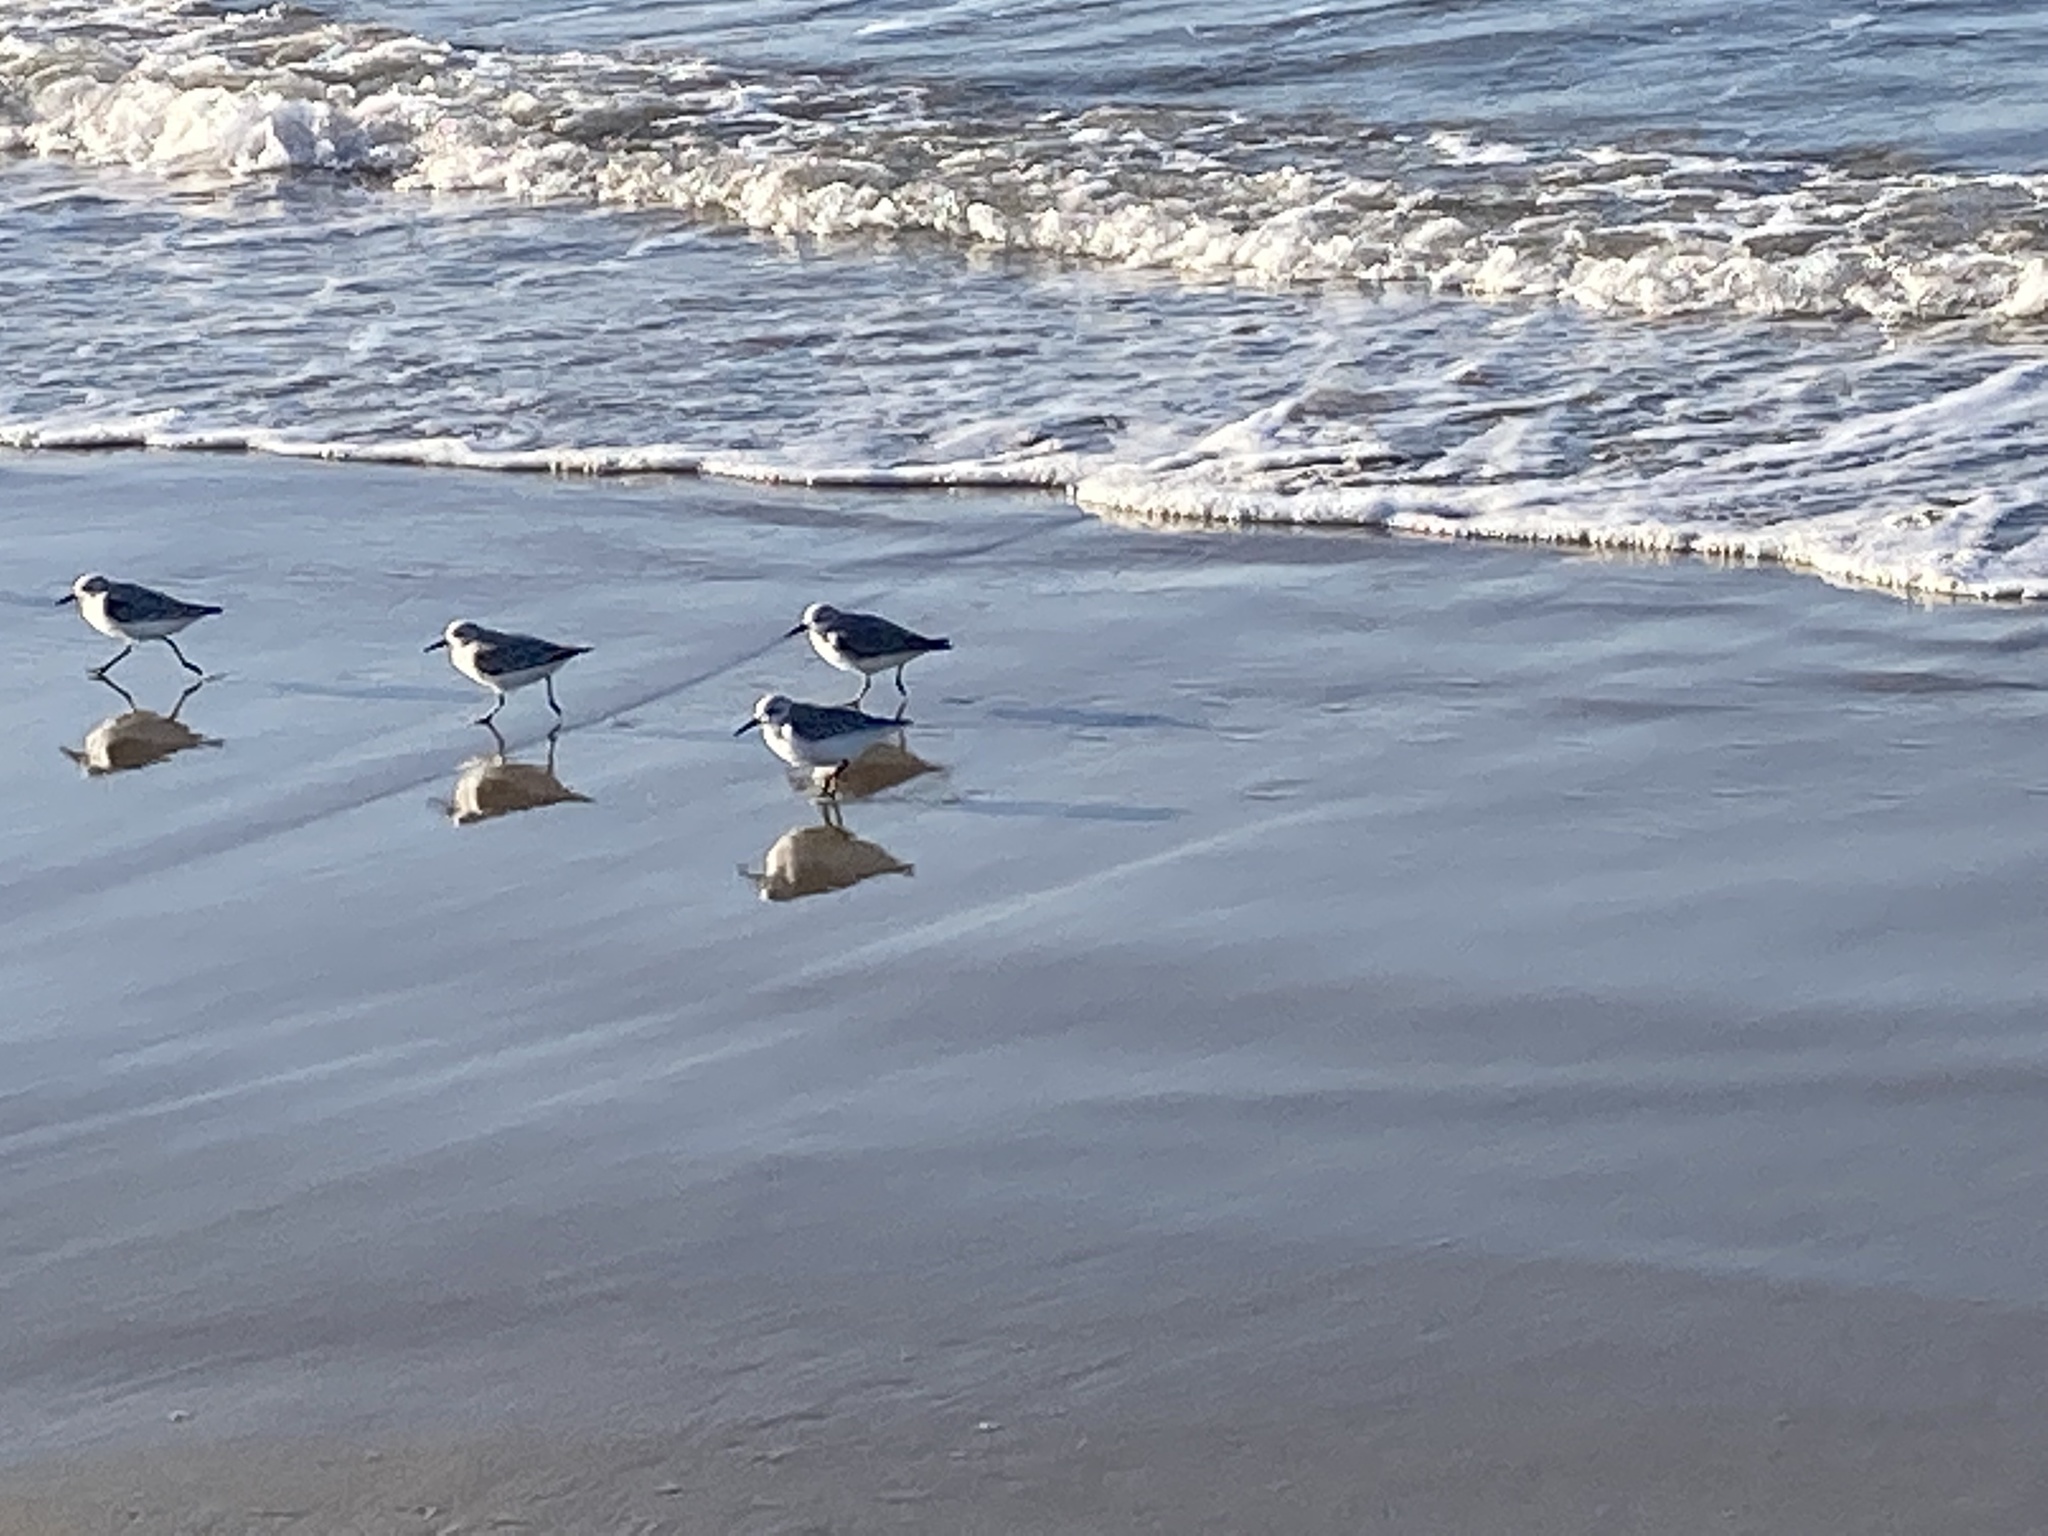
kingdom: Animalia
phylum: Chordata
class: Aves
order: Charadriiformes
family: Scolopacidae
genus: Calidris
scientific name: Calidris alba
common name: Sanderling
